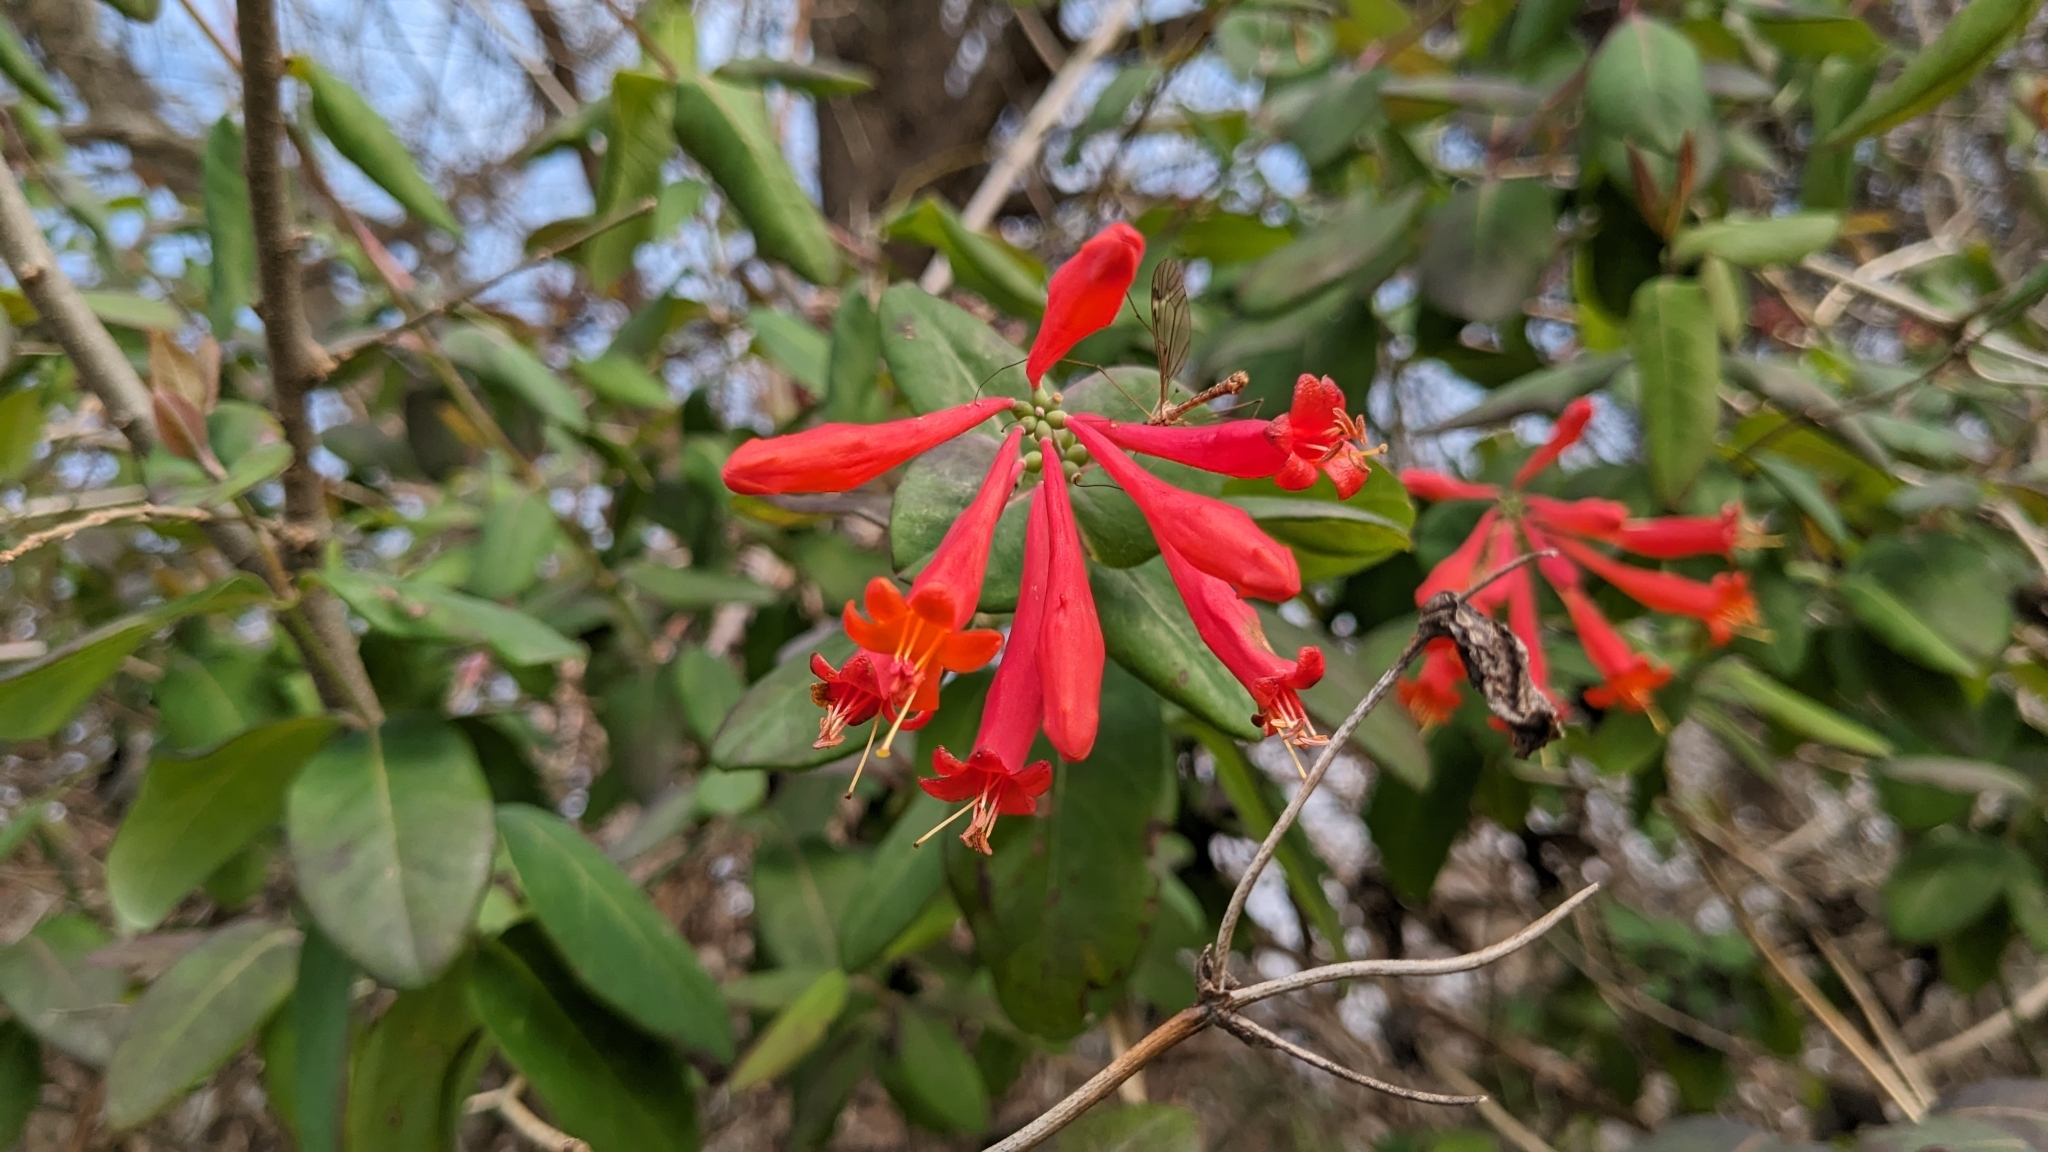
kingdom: Plantae
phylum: Tracheophyta
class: Magnoliopsida
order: Dipsacales
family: Caprifoliaceae
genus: Lonicera
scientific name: Lonicera sempervirens
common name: Coral honeysuckle
